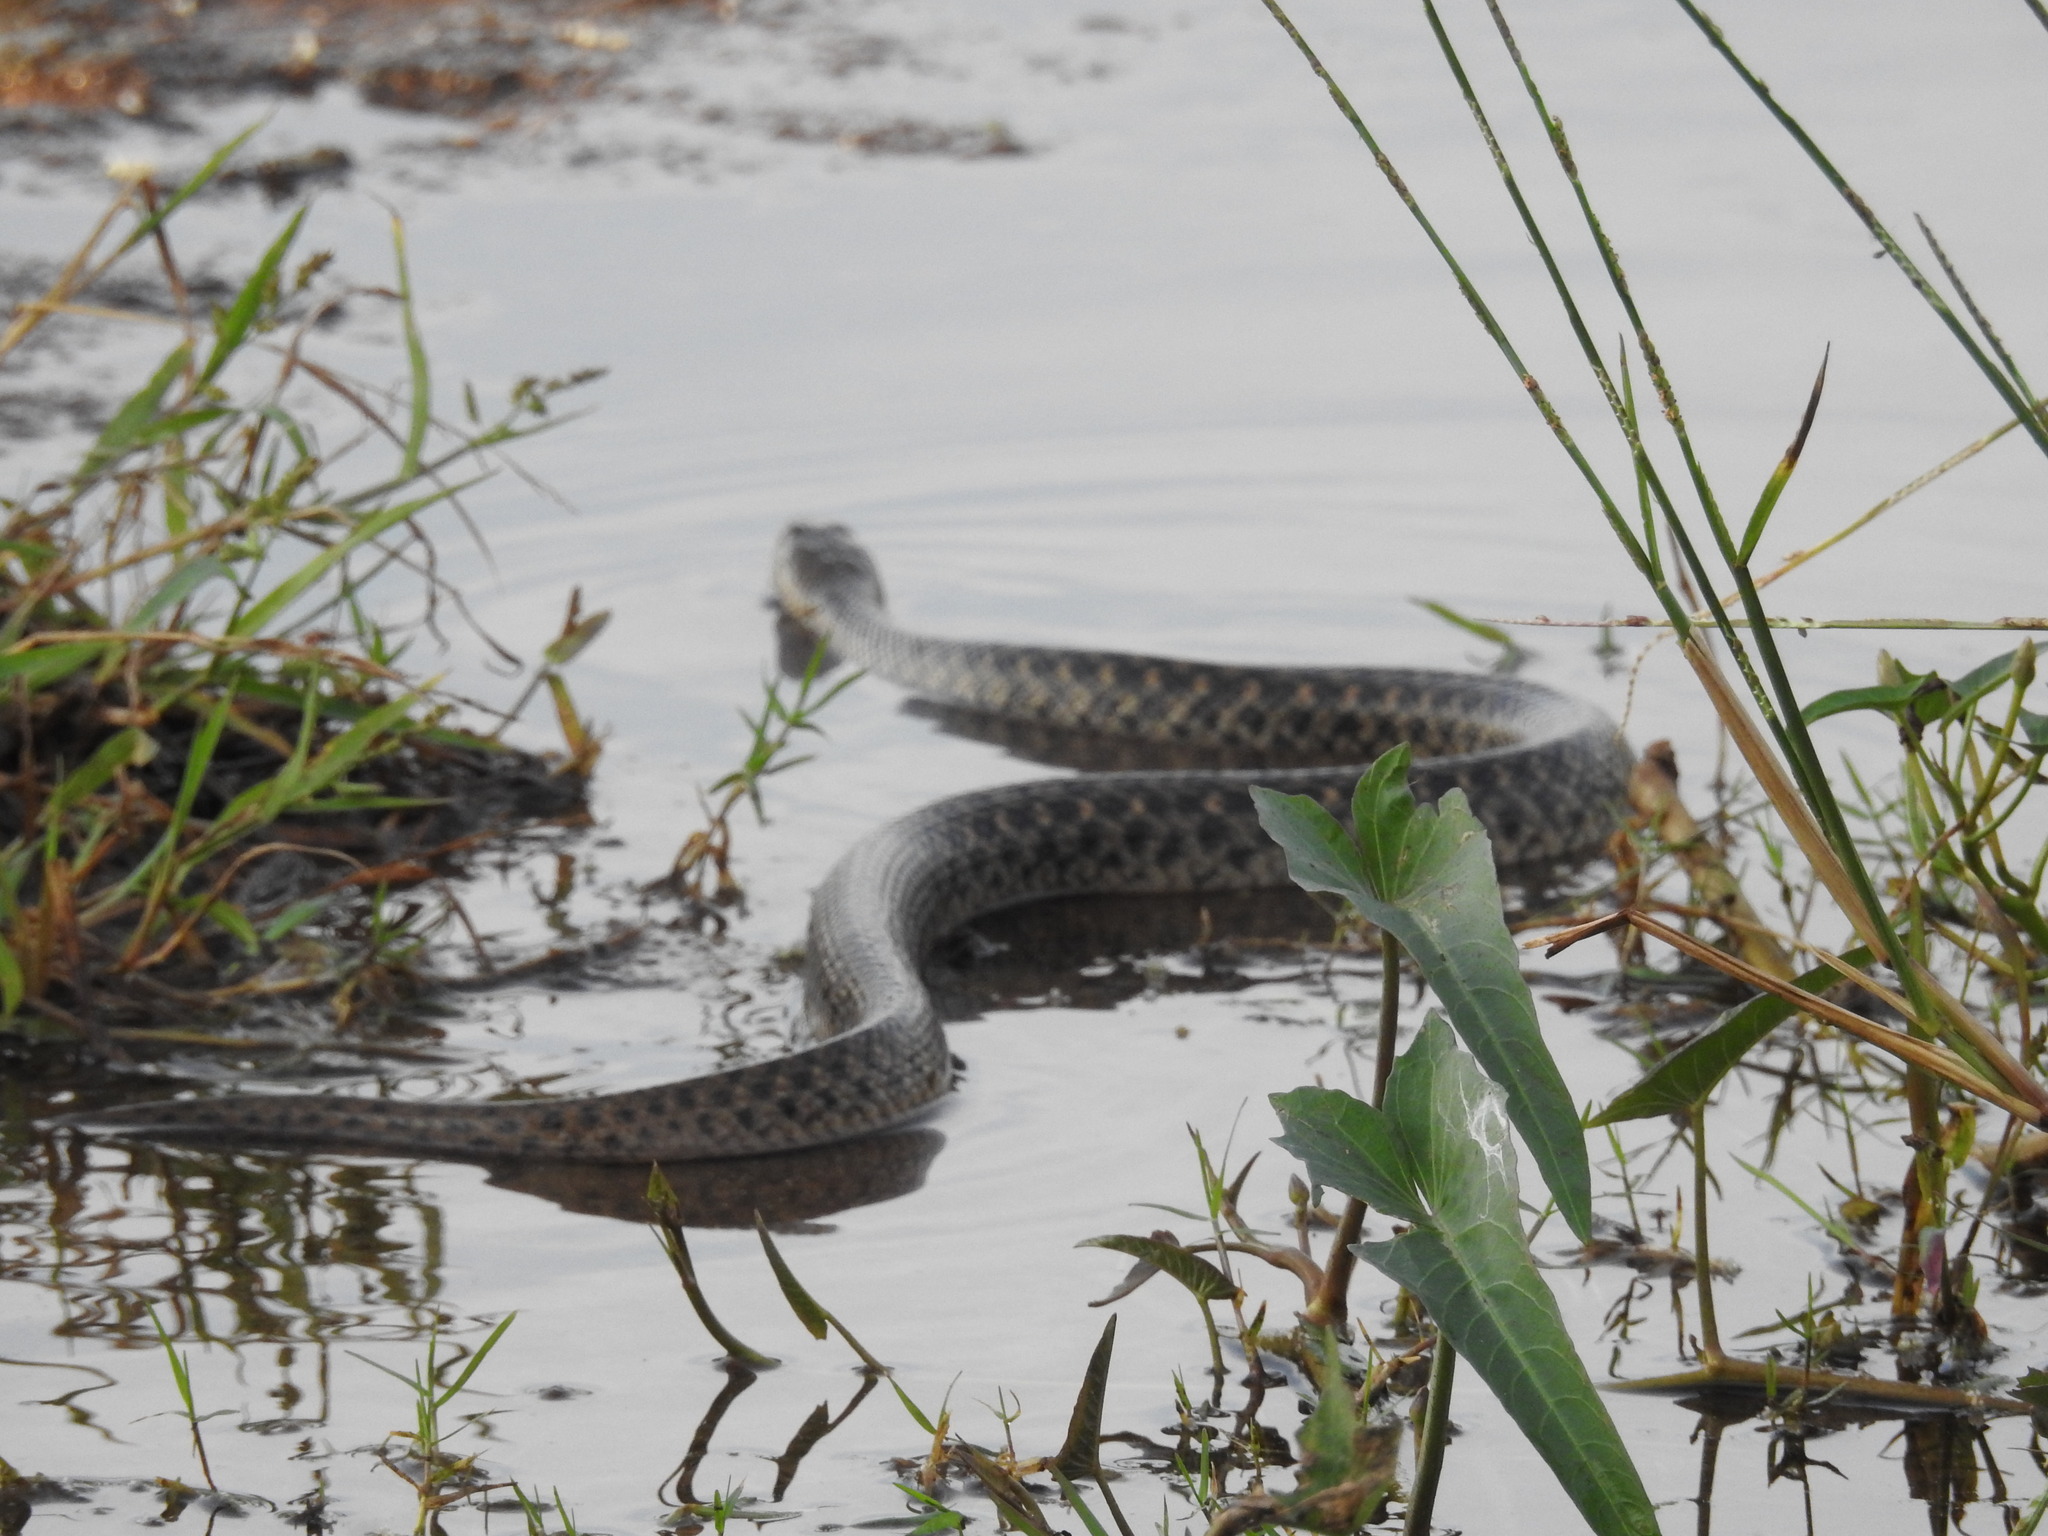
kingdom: Animalia
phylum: Chordata
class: Squamata
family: Colubridae
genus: Fowlea
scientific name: Fowlea piscator
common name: Asiatic water snake
